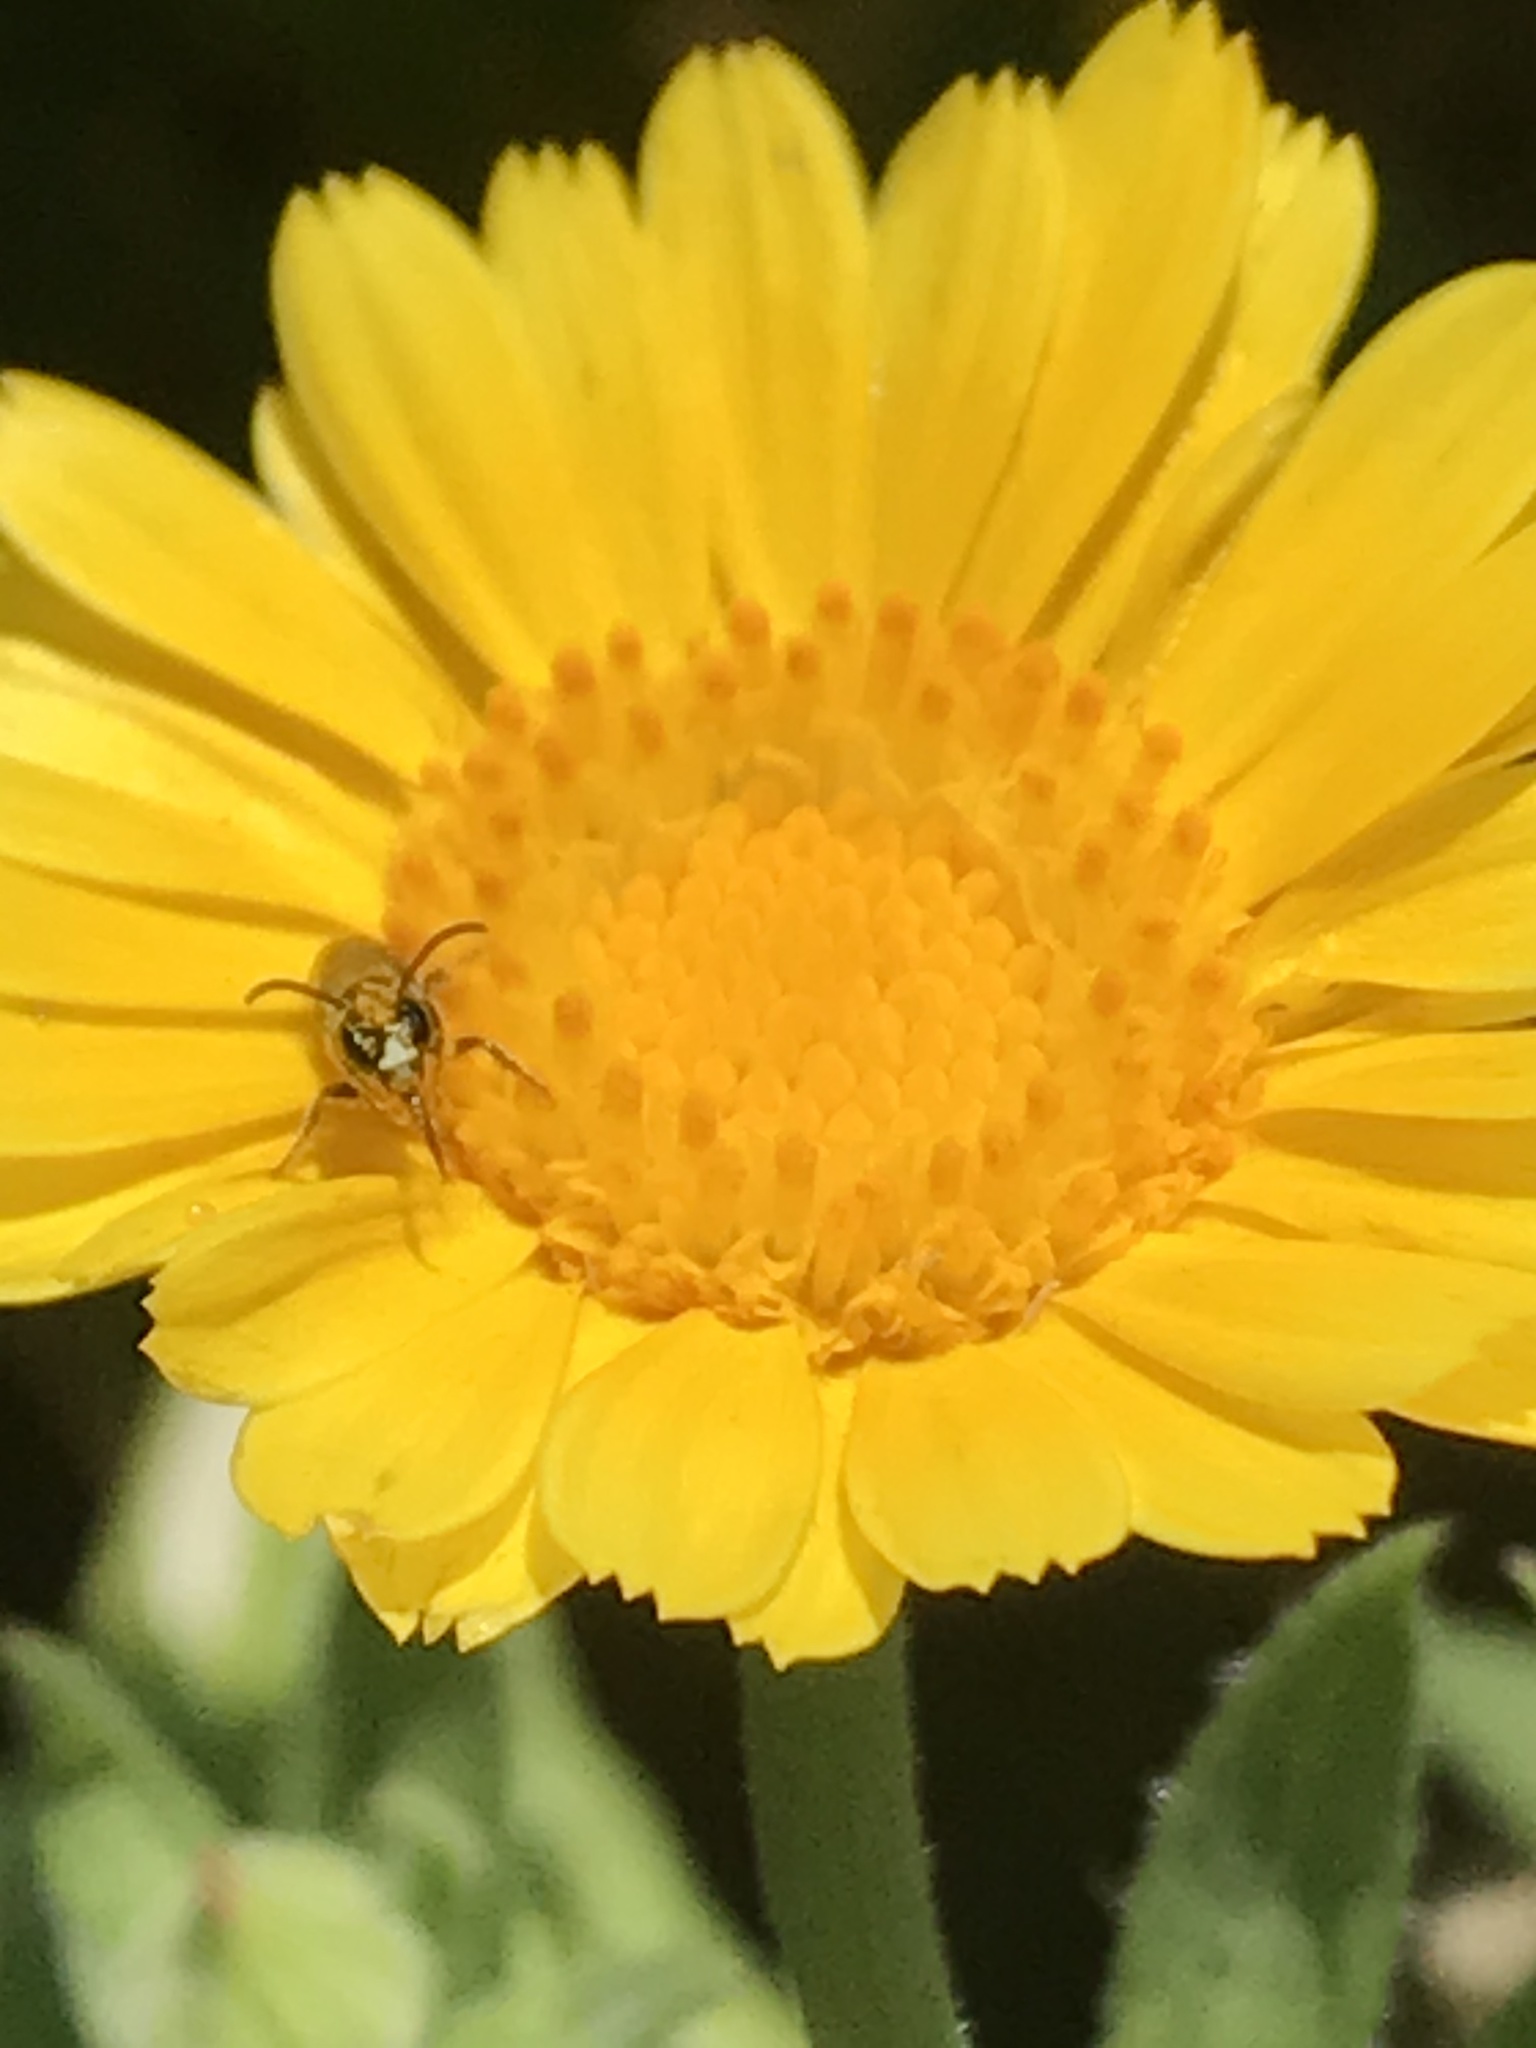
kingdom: Animalia
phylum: Arthropoda
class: Insecta
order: Hymenoptera
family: Apidae
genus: Zadontomerus
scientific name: Zadontomerus
